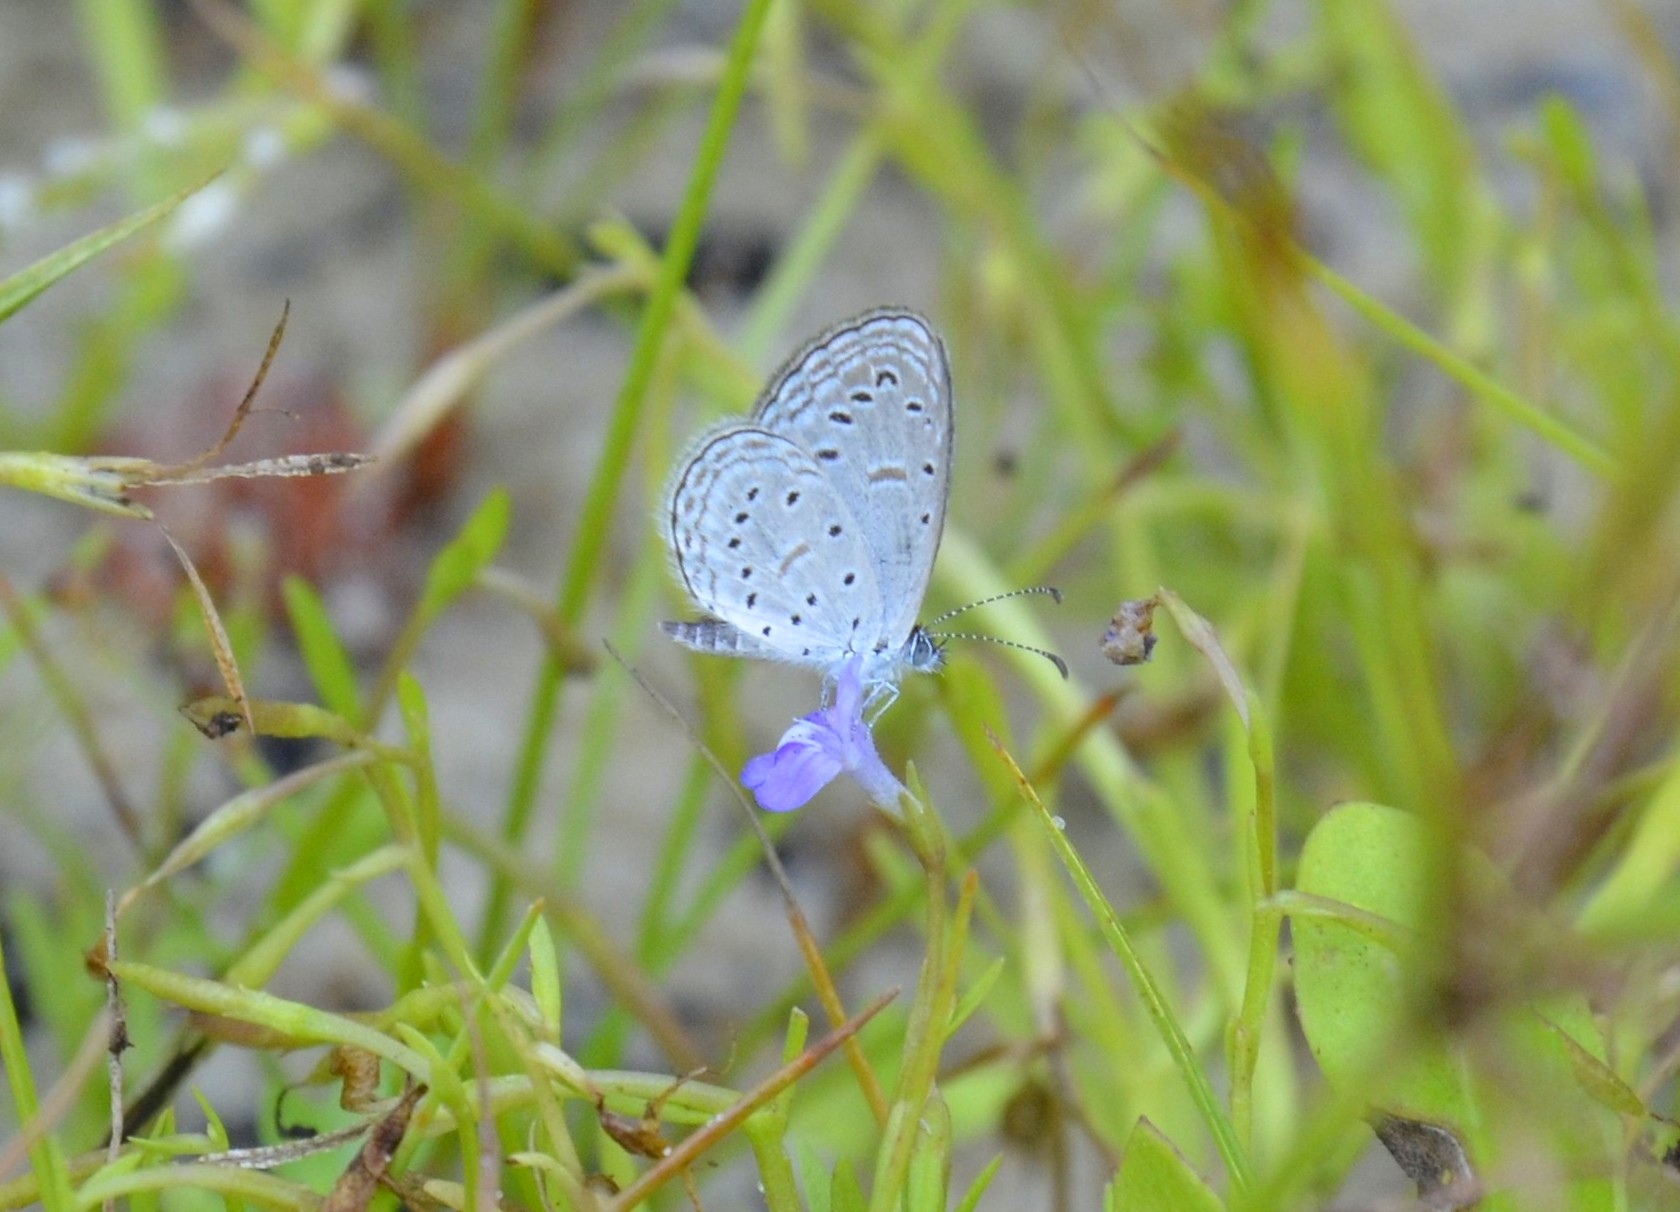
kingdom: Animalia
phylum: Arthropoda
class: Insecta
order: Lepidoptera
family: Lycaenidae
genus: Zizula
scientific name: Zizula hylax
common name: Gaika blue
